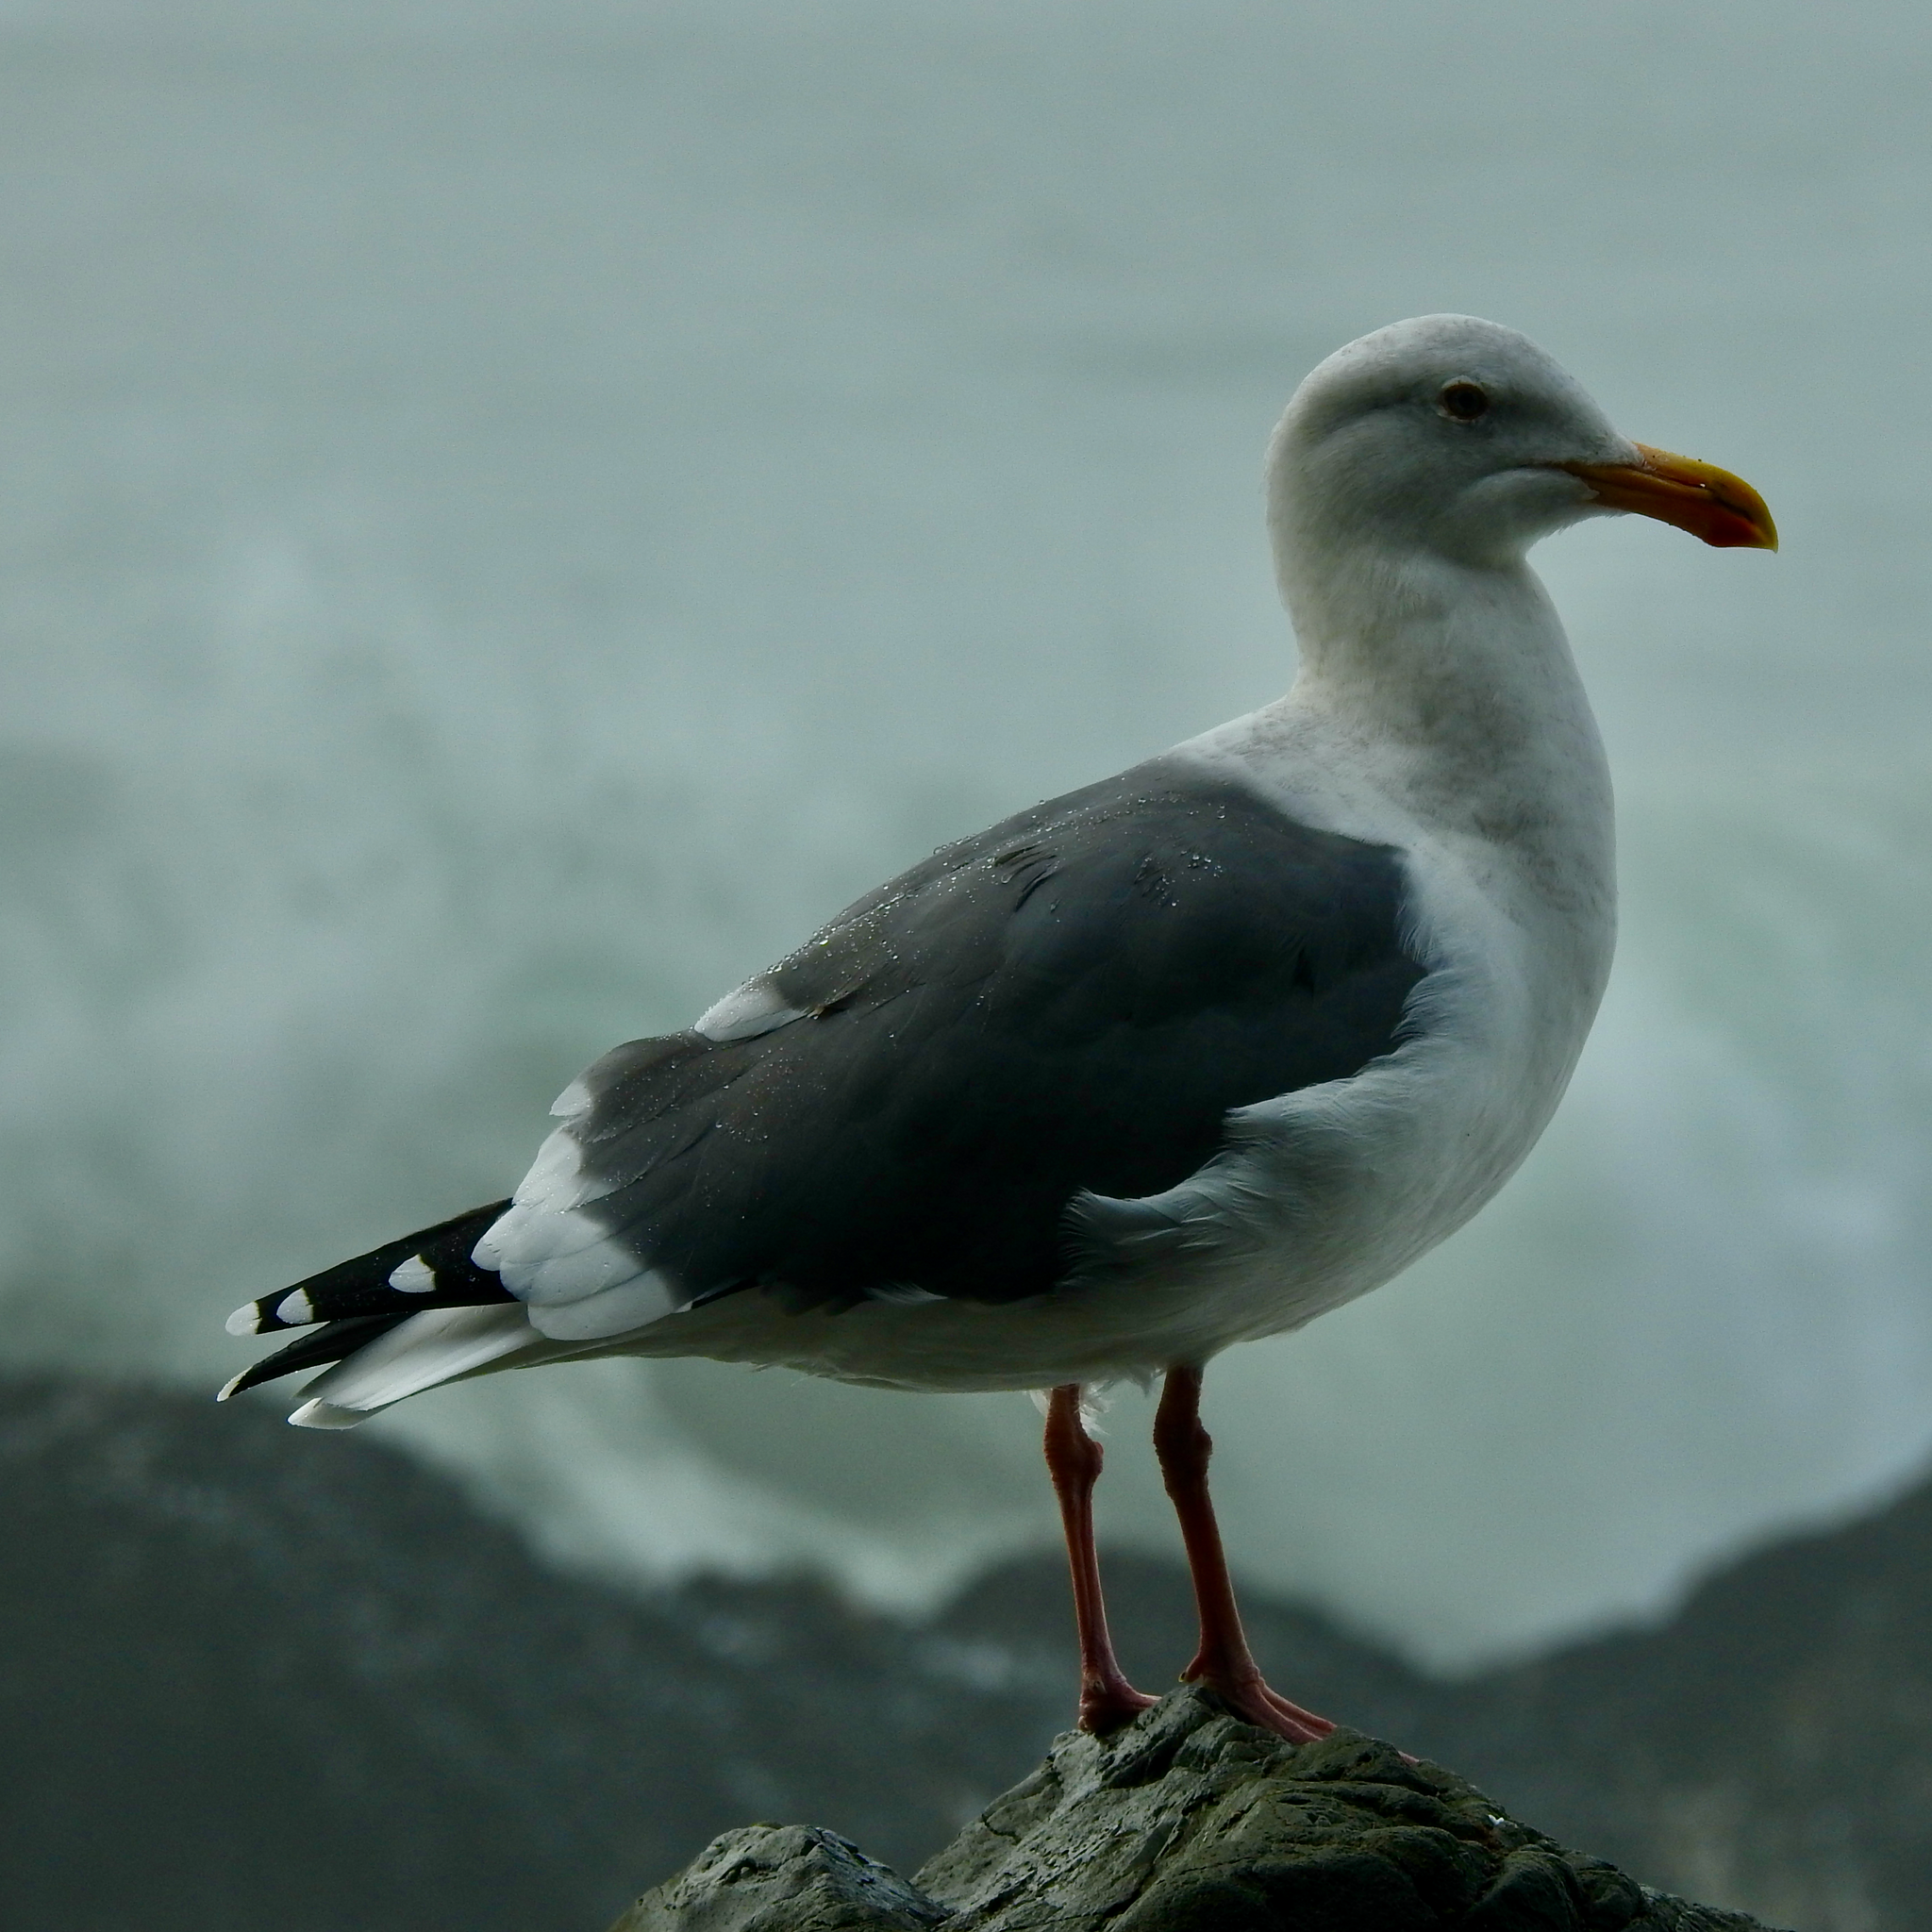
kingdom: Animalia
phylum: Chordata
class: Aves
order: Charadriiformes
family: Laridae
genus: Larus
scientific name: Larus occidentalis
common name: Western gull
